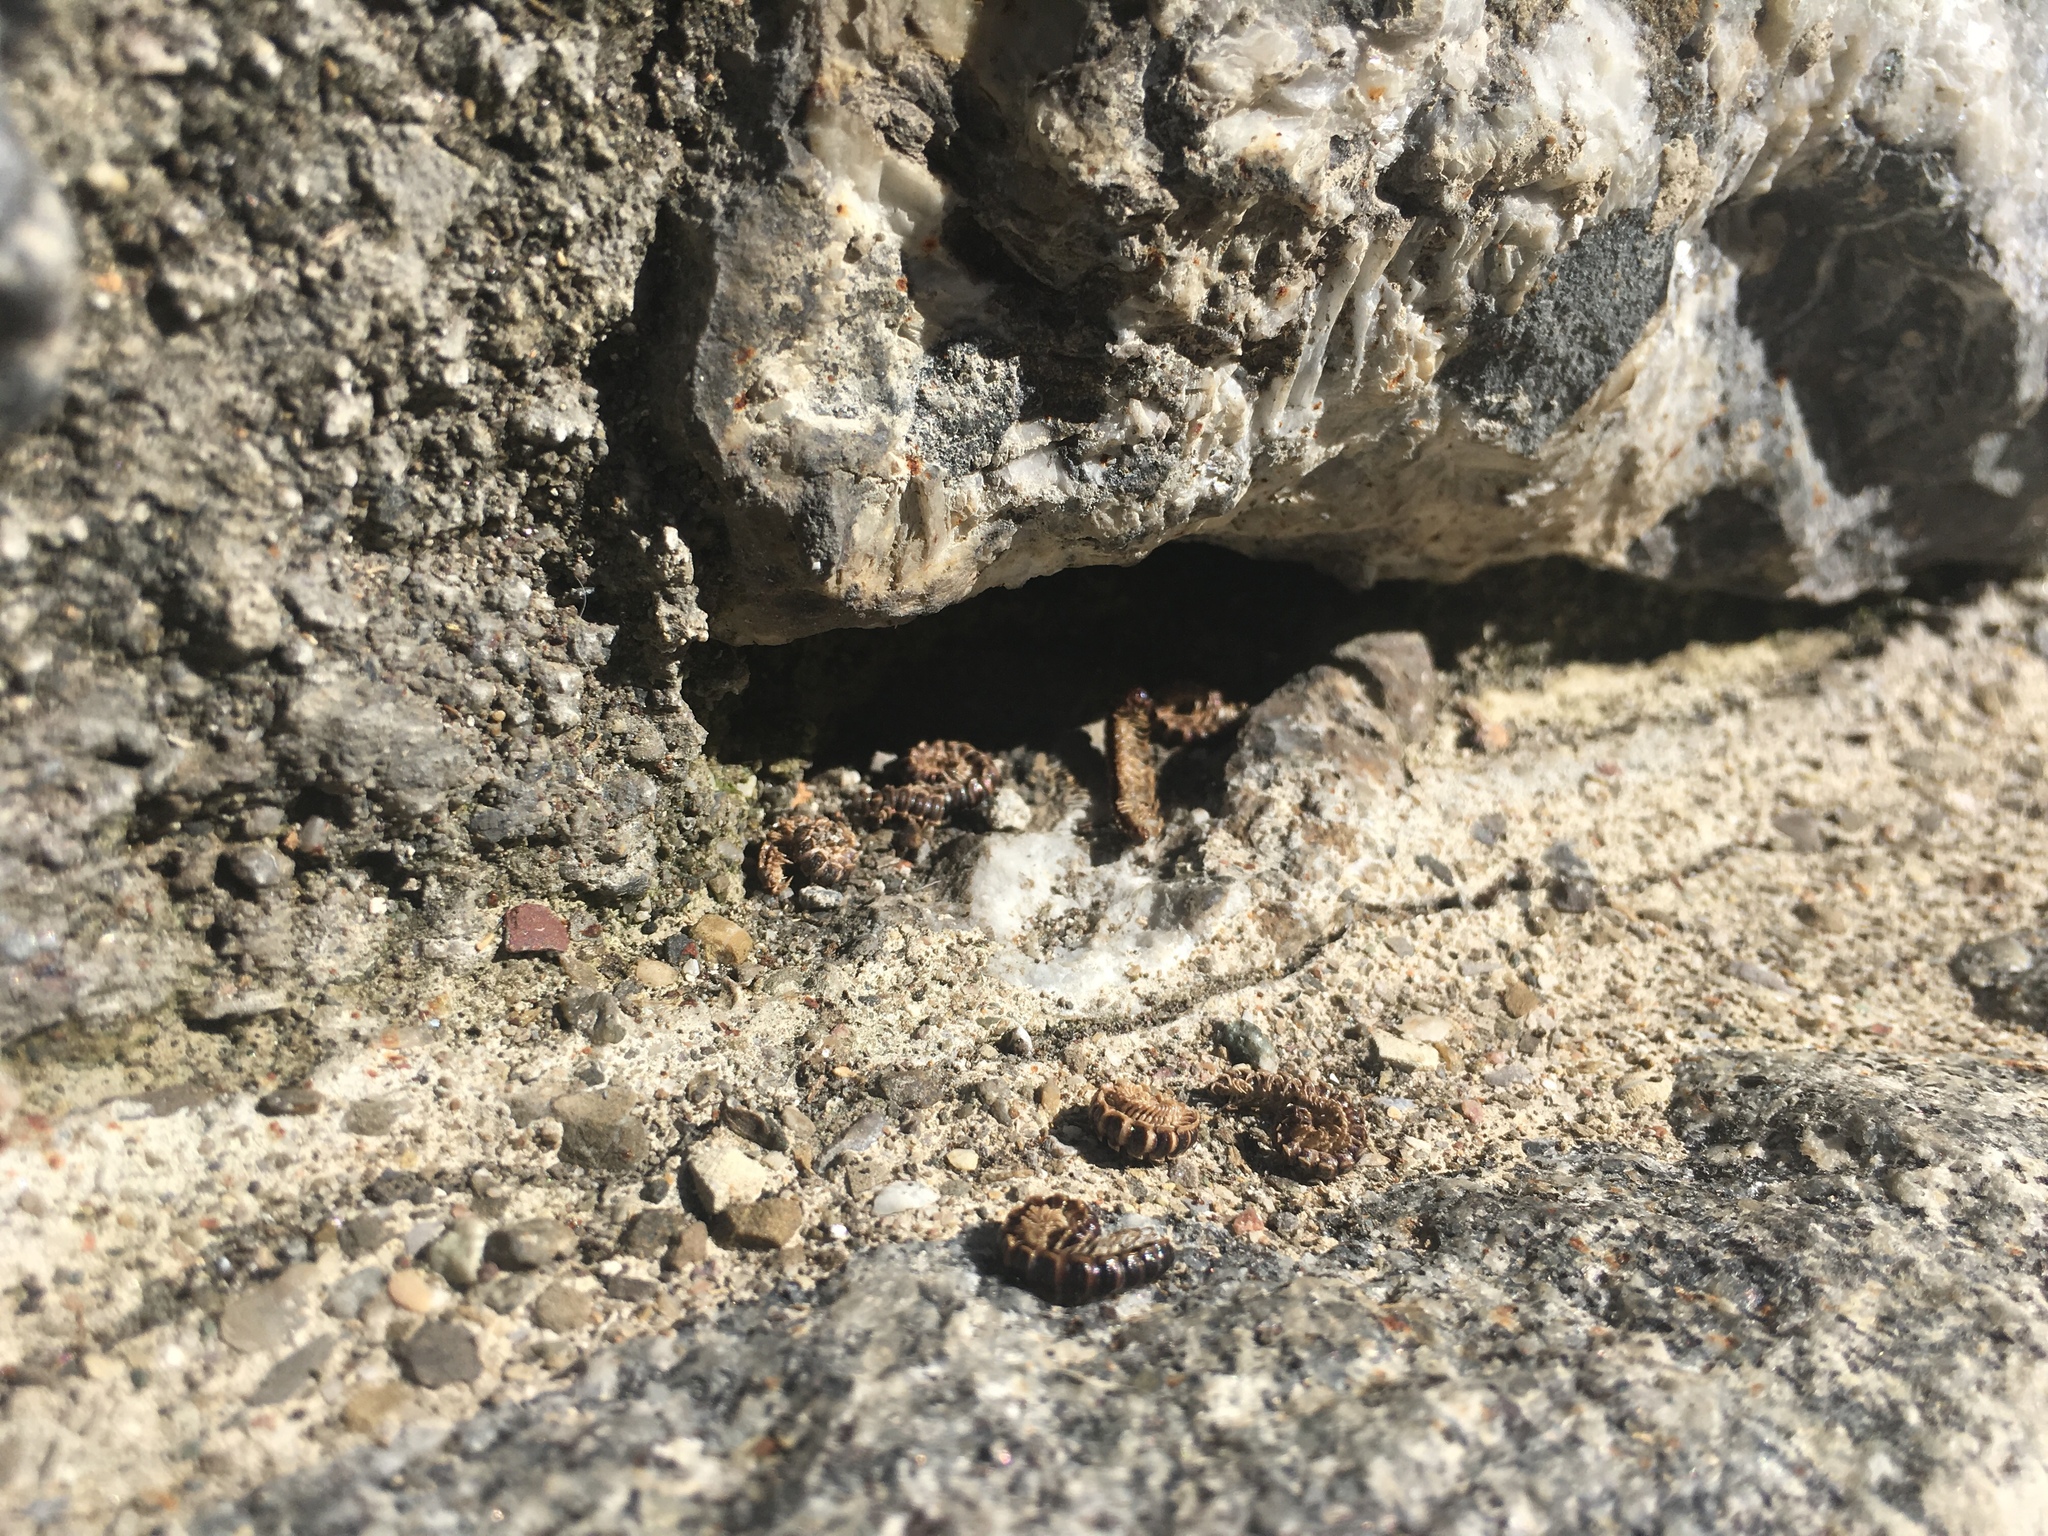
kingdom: Animalia
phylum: Chordata
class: Squamata
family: Lacertidae
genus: Podarcis
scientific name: Podarcis muralis
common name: Common wall lizard
